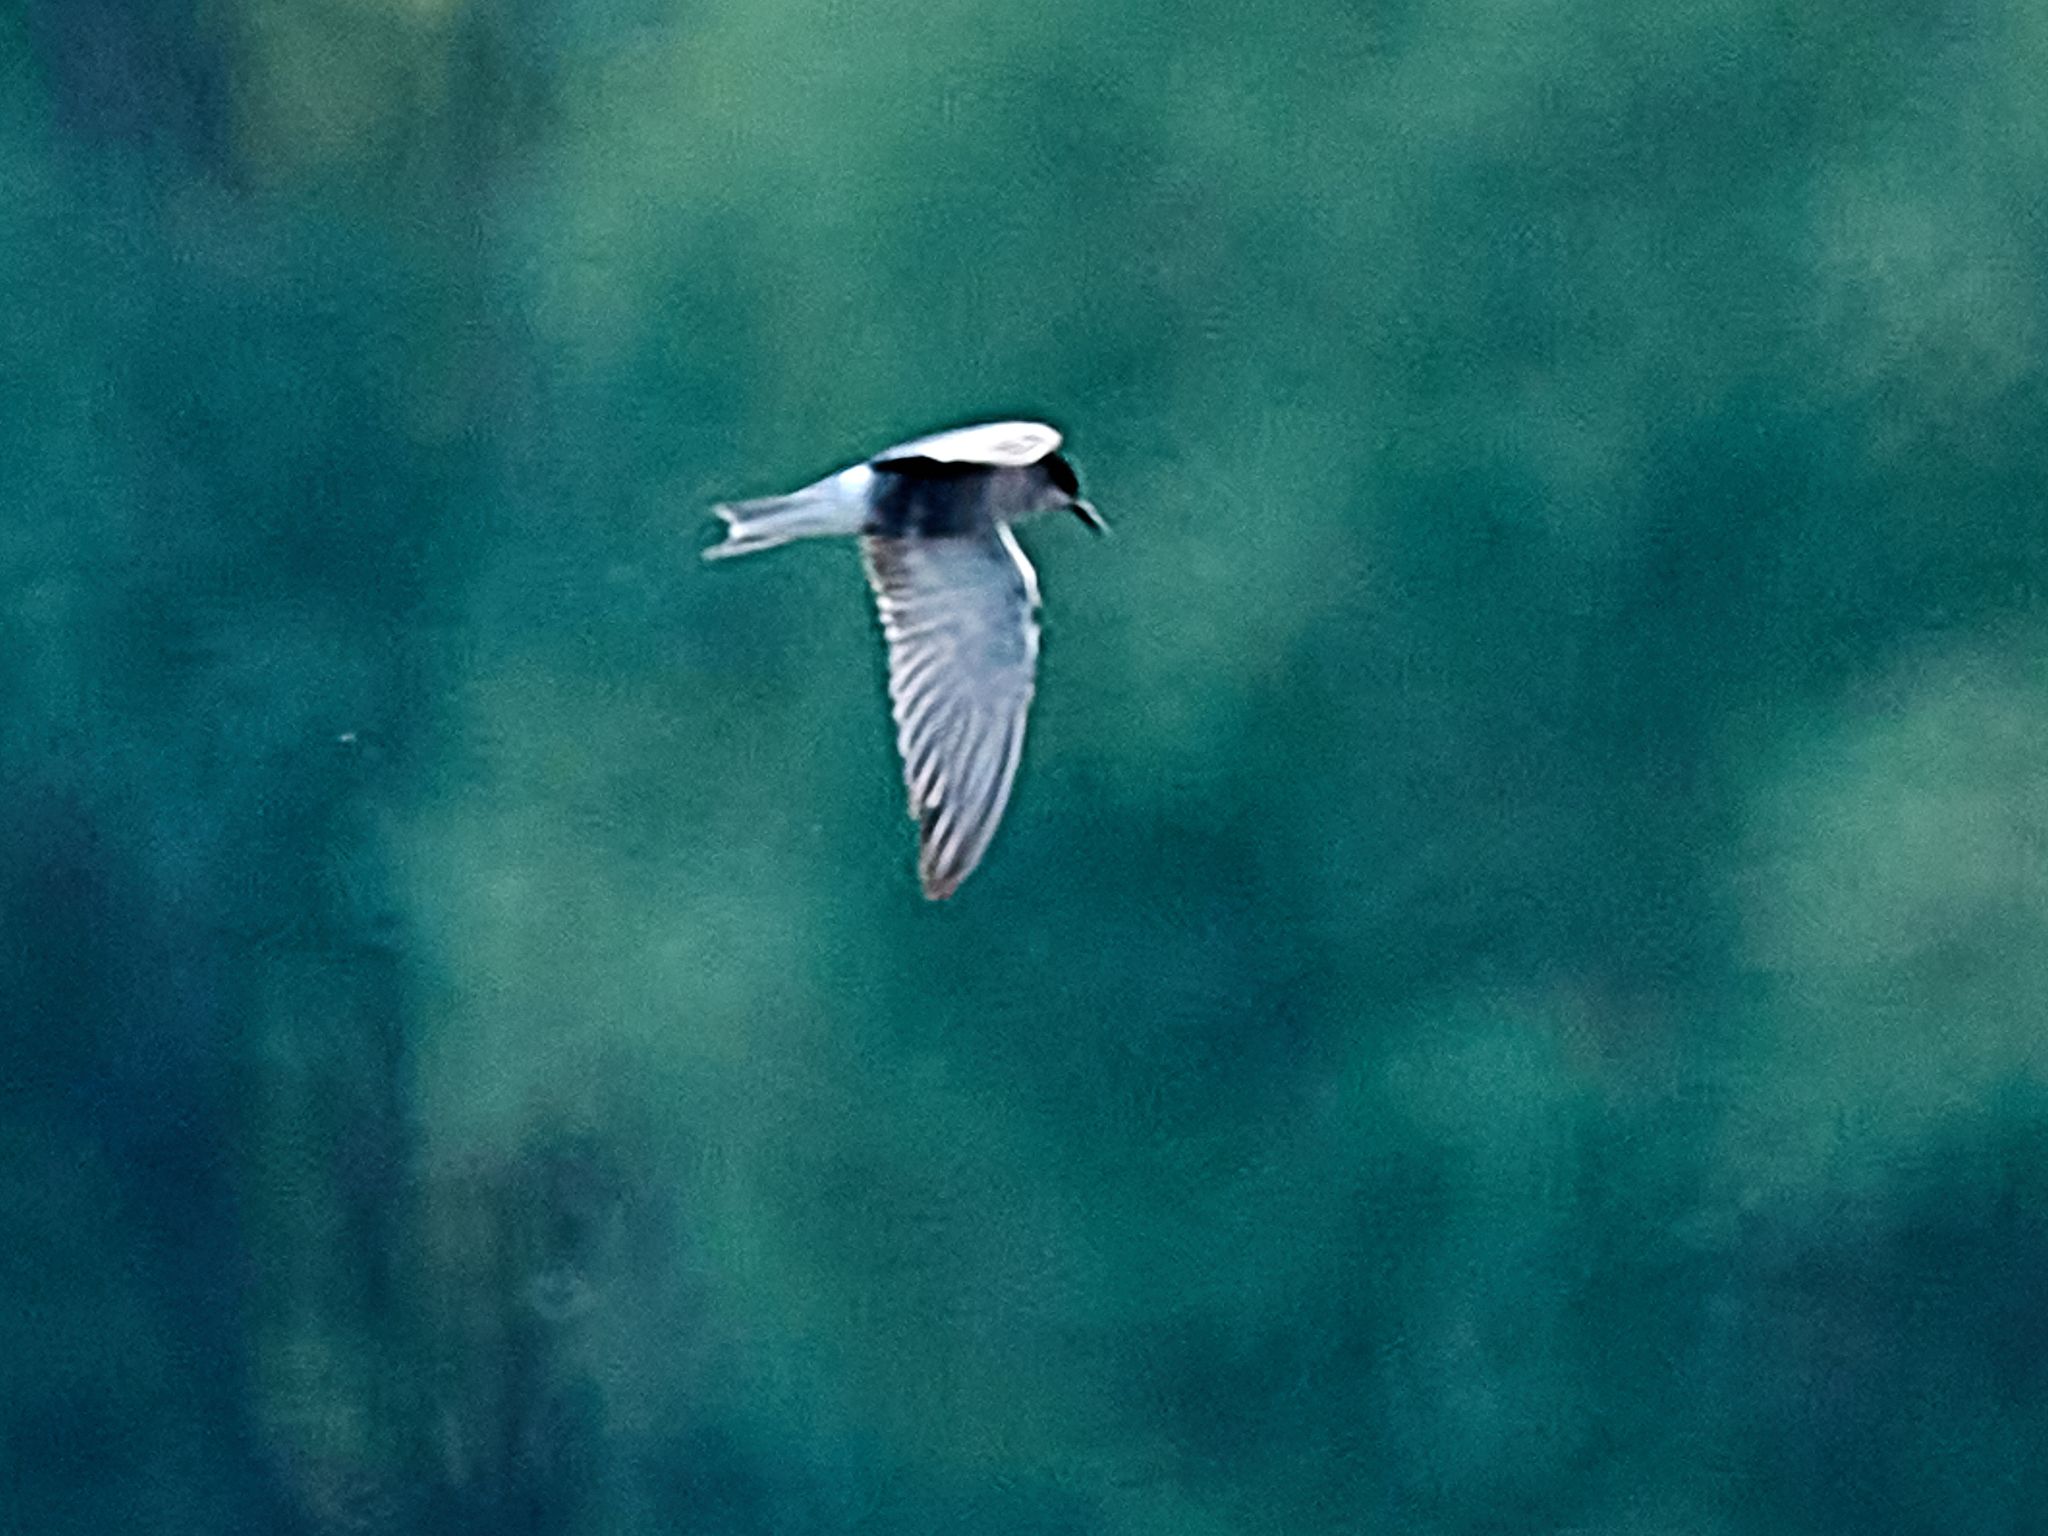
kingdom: Animalia
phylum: Chordata
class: Aves
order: Charadriiformes
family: Laridae
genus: Chlidonias
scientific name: Chlidonias niger
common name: Black tern
